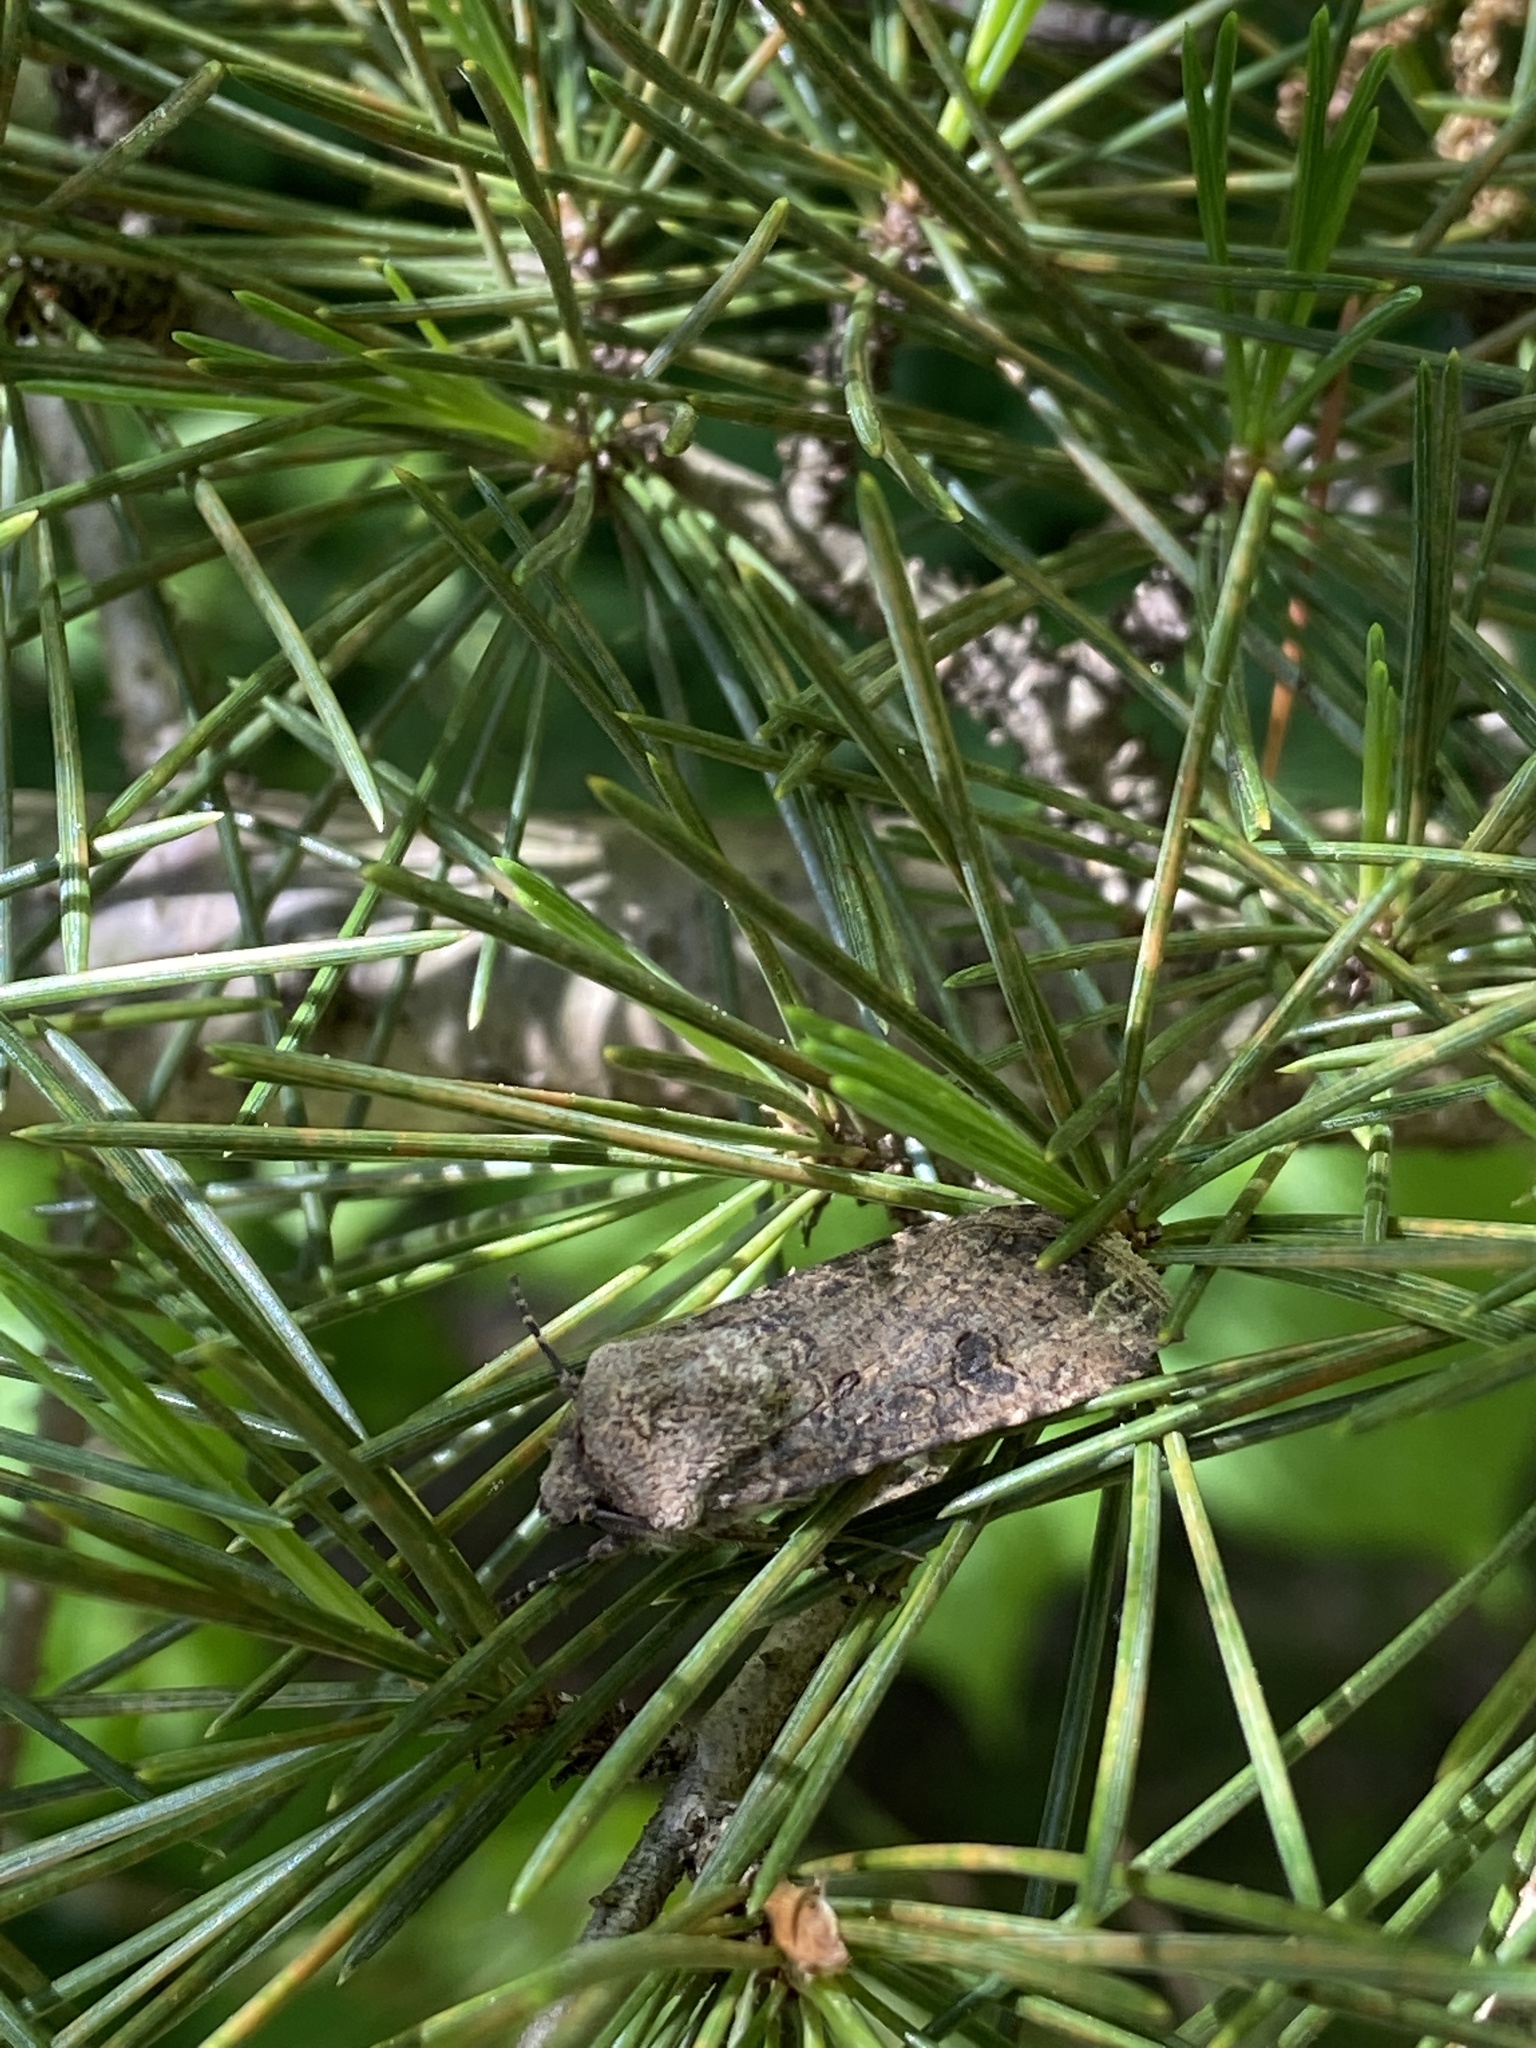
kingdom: Animalia
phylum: Arthropoda
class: Insecta
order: Lepidoptera
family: Noctuidae
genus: Agrotis
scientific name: Agrotis segetum
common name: Turnip moth
